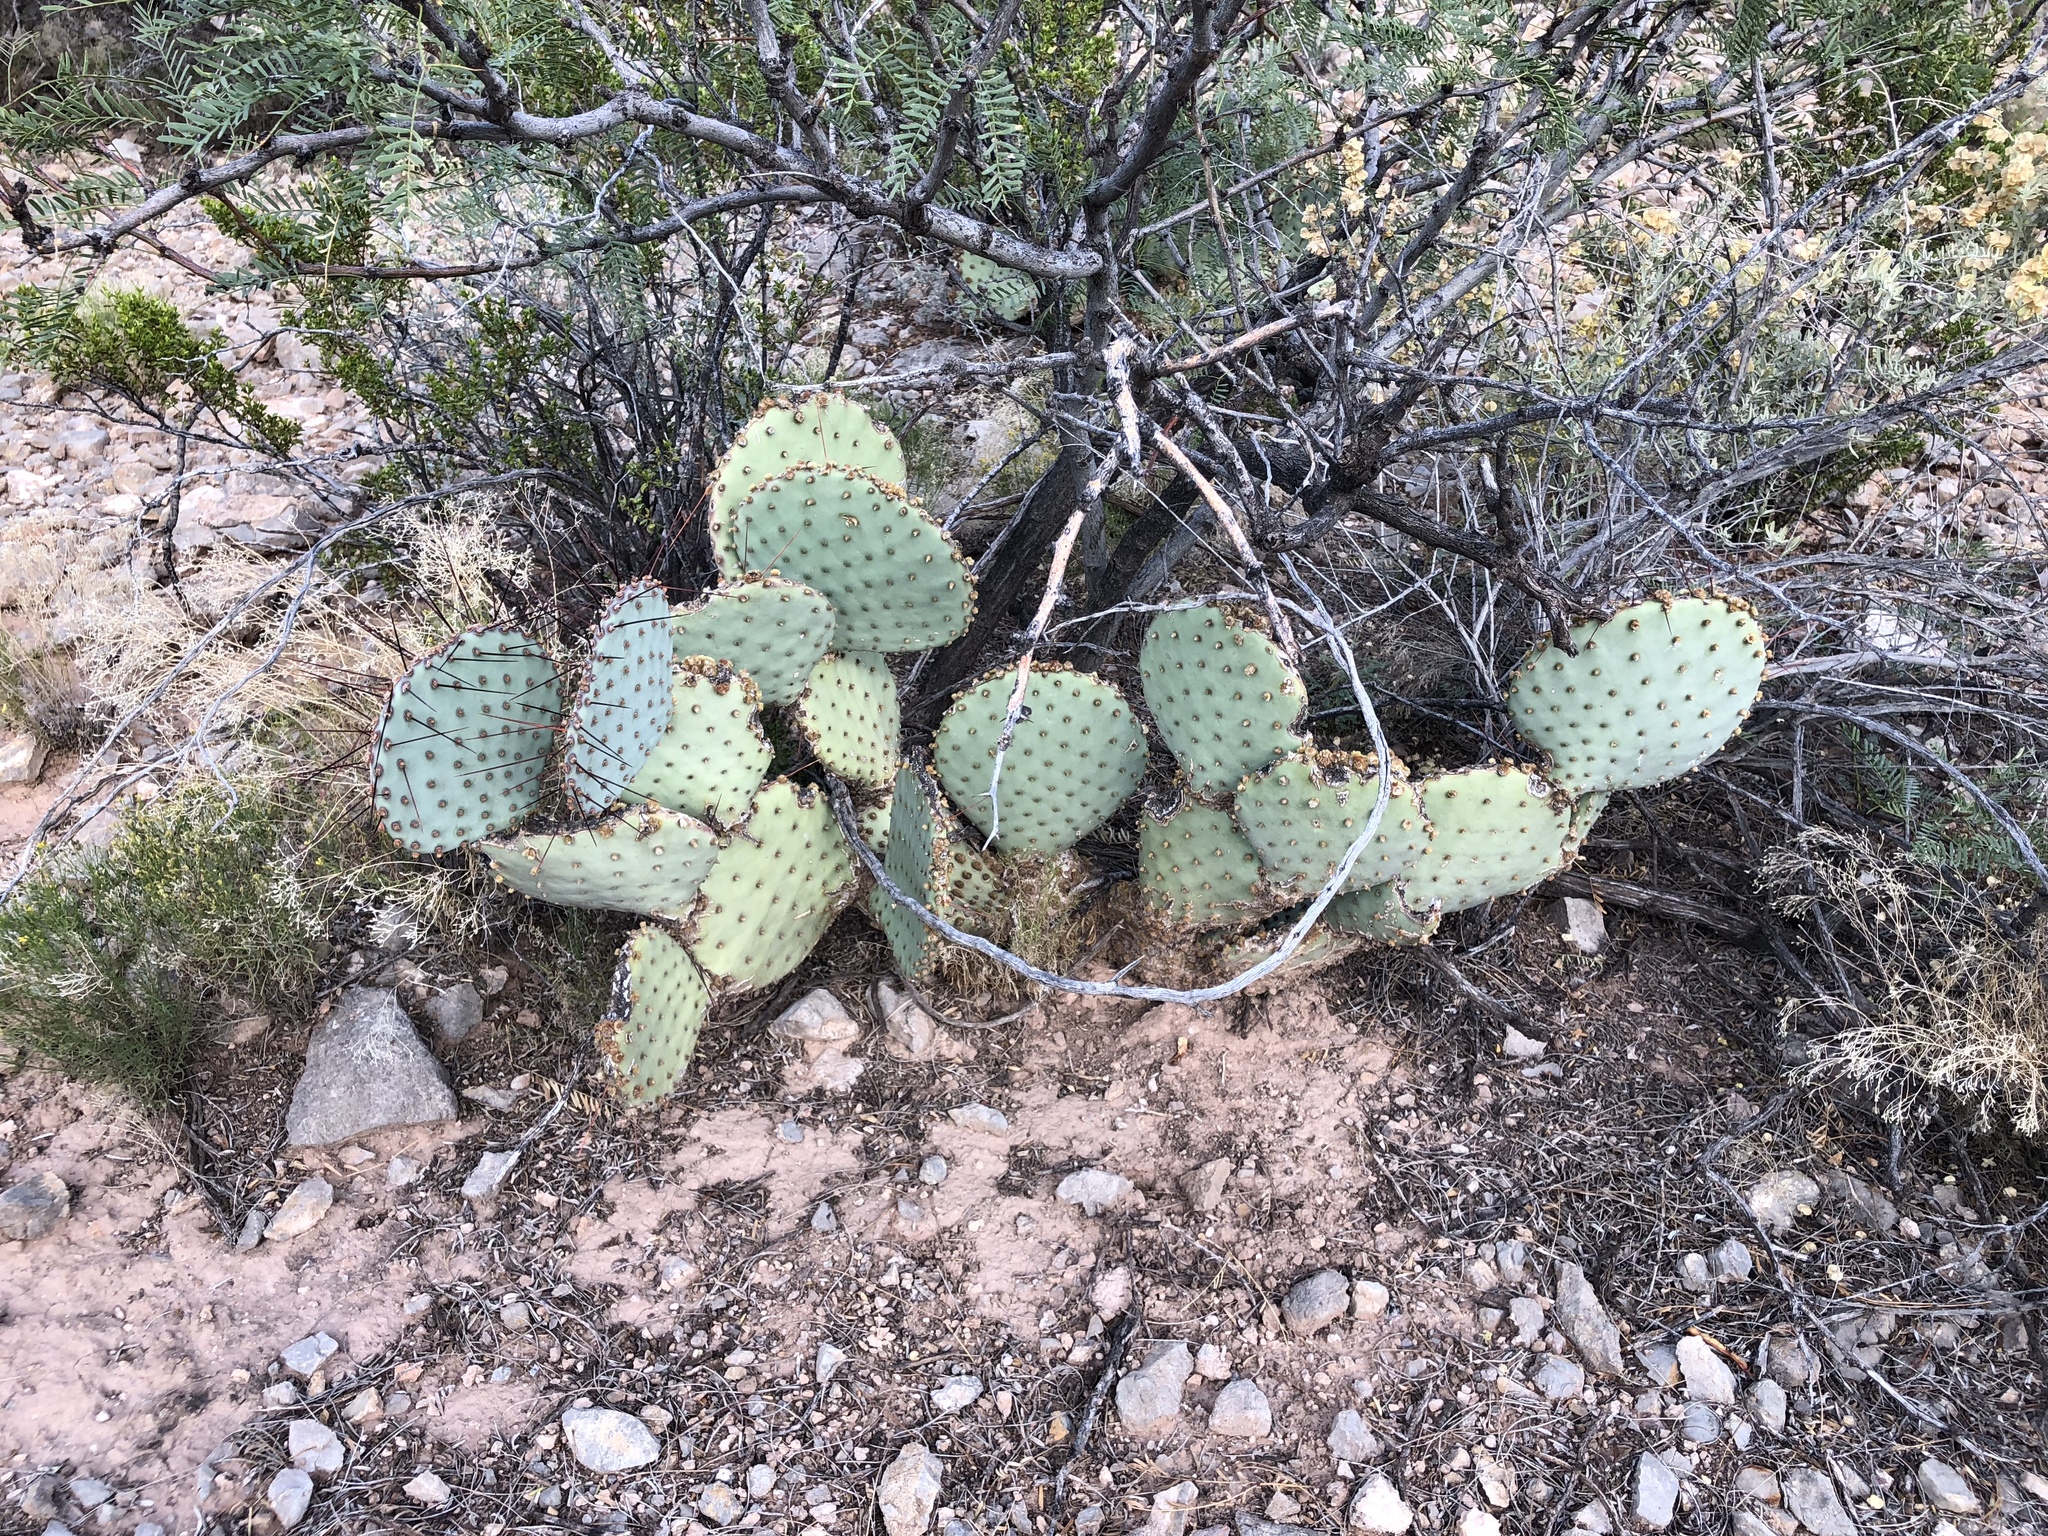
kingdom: Plantae
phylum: Tracheophyta
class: Magnoliopsida
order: Caryophyllales
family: Cactaceae
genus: Opuntia
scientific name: Opuntia macrocentra
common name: Purple prickly-pear
